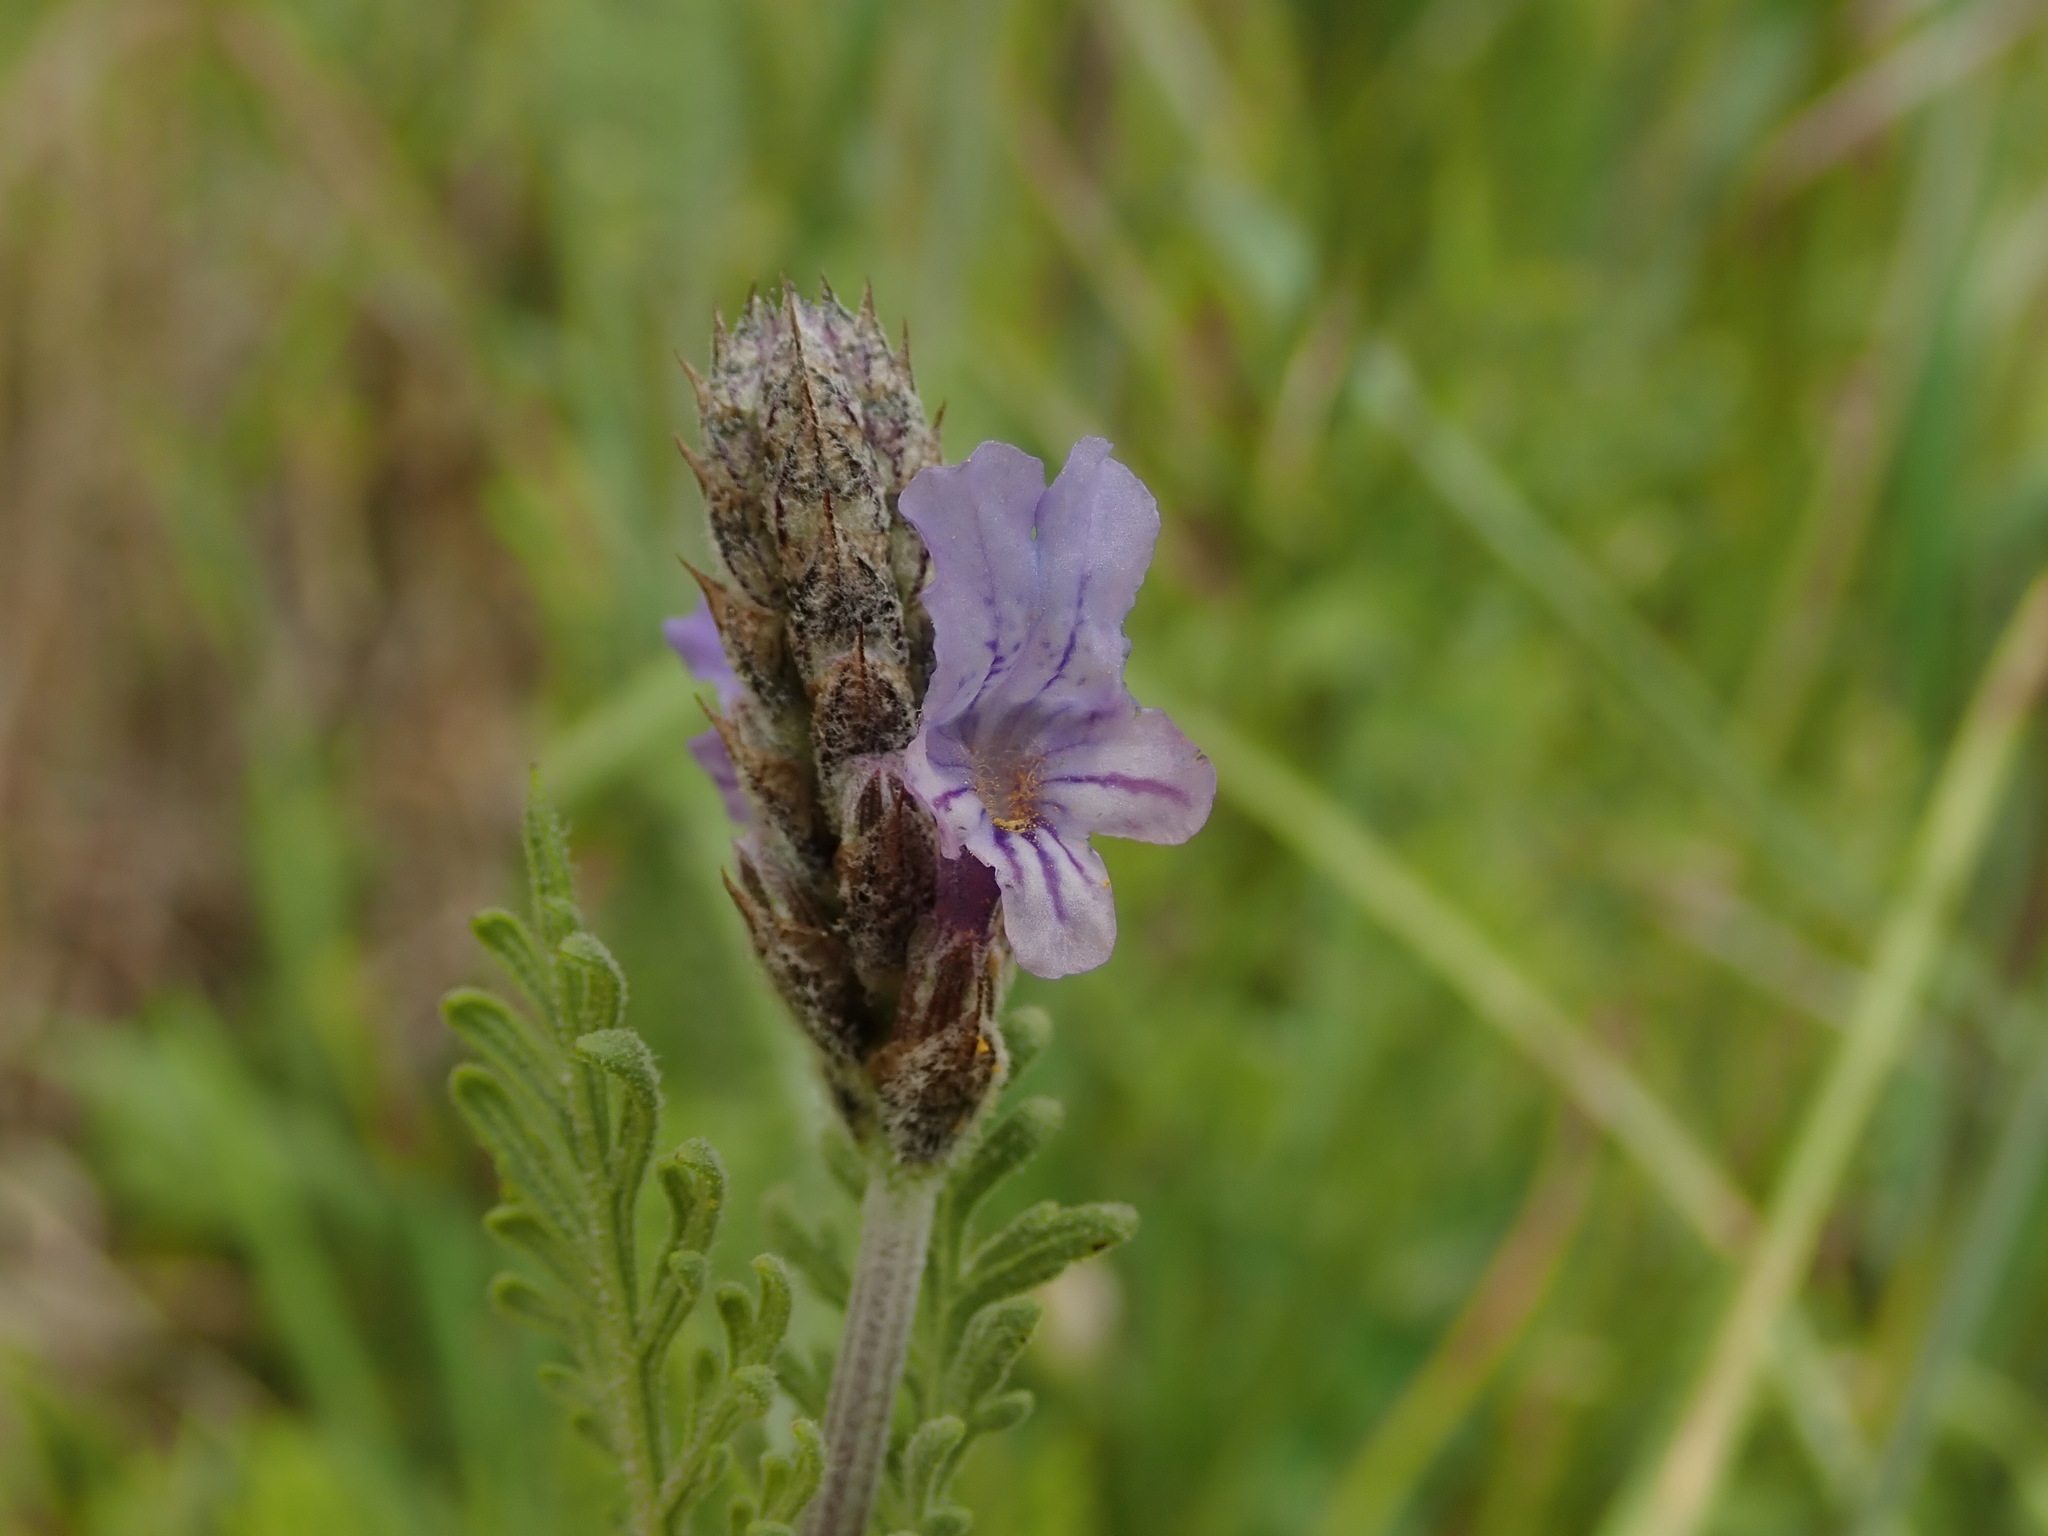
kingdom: Plantae
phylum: Tracheophyta
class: Magnoliopsida
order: Lamiales
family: Lamiaceae
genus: Lavandula
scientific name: Lavandula multifida
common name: Fern-leaf lavender
